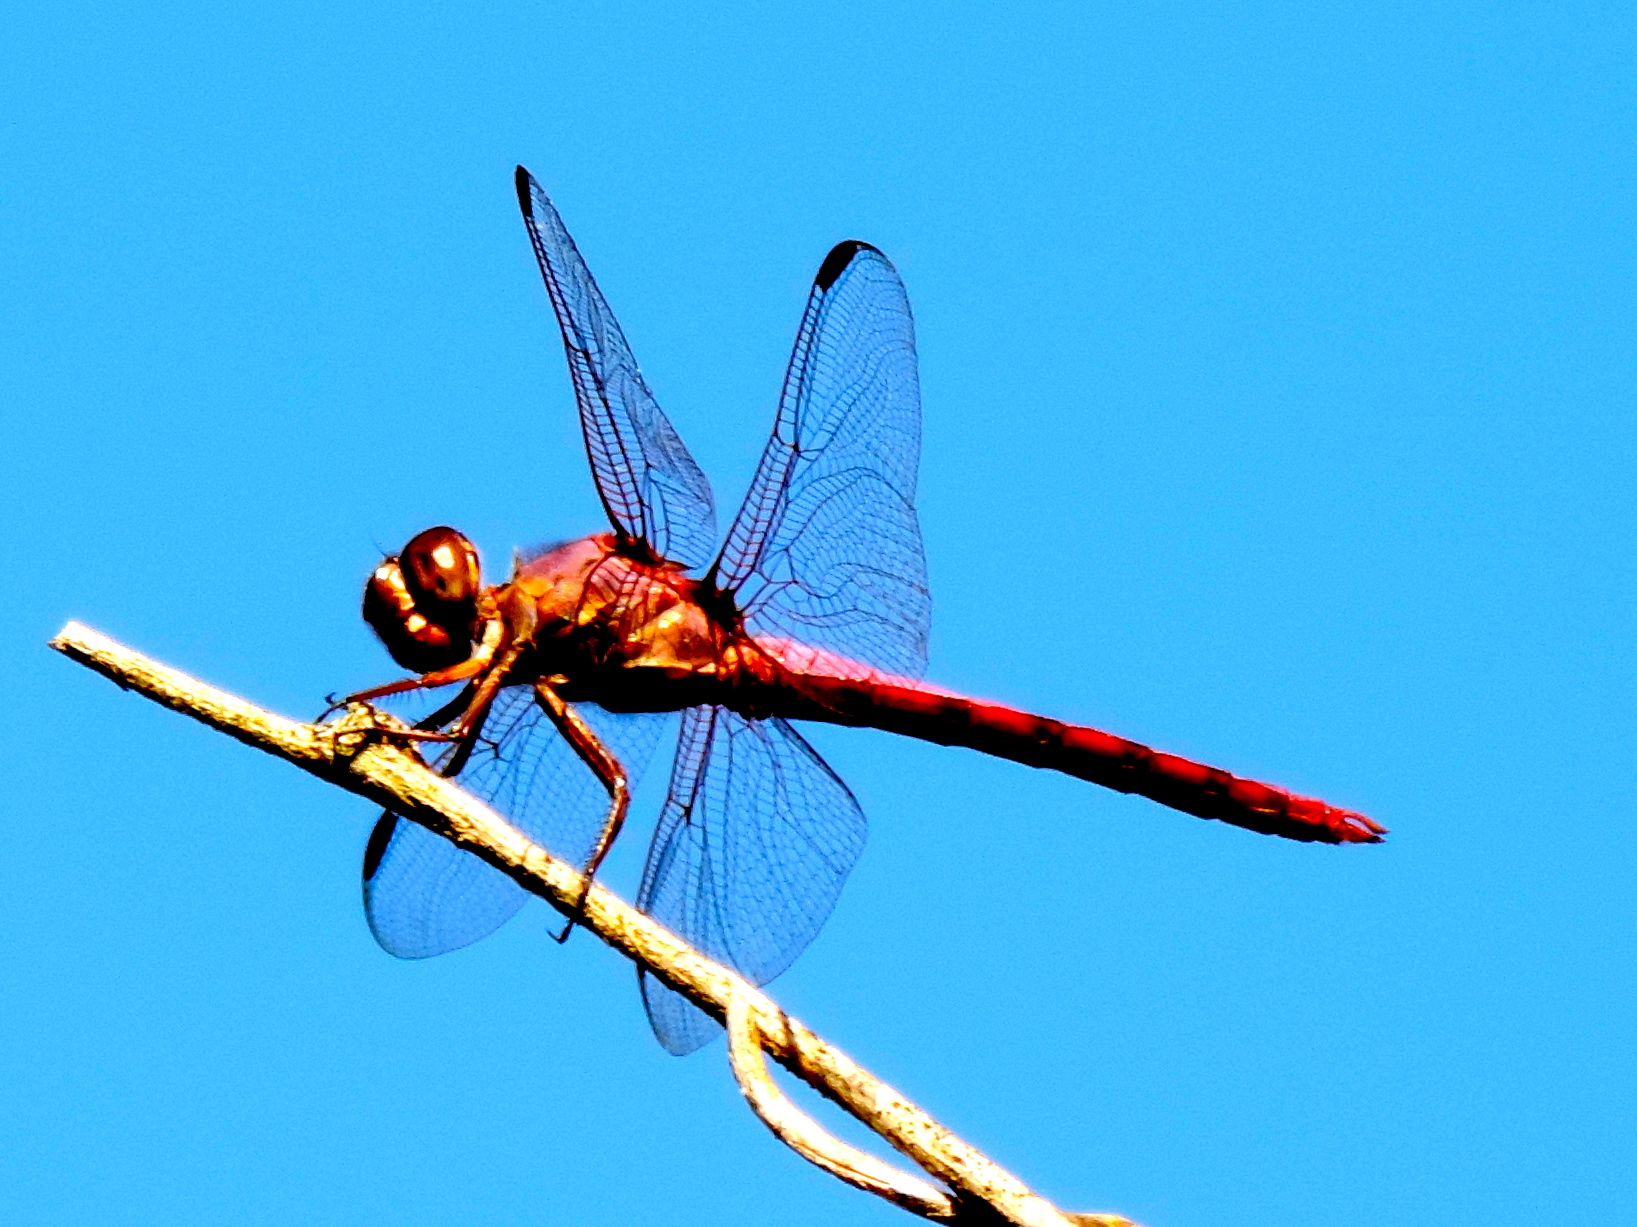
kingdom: Animalia
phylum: Arthropoda
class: Insecta
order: Odonata
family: Libellulidae
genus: Orthemis
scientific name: Orthemis
